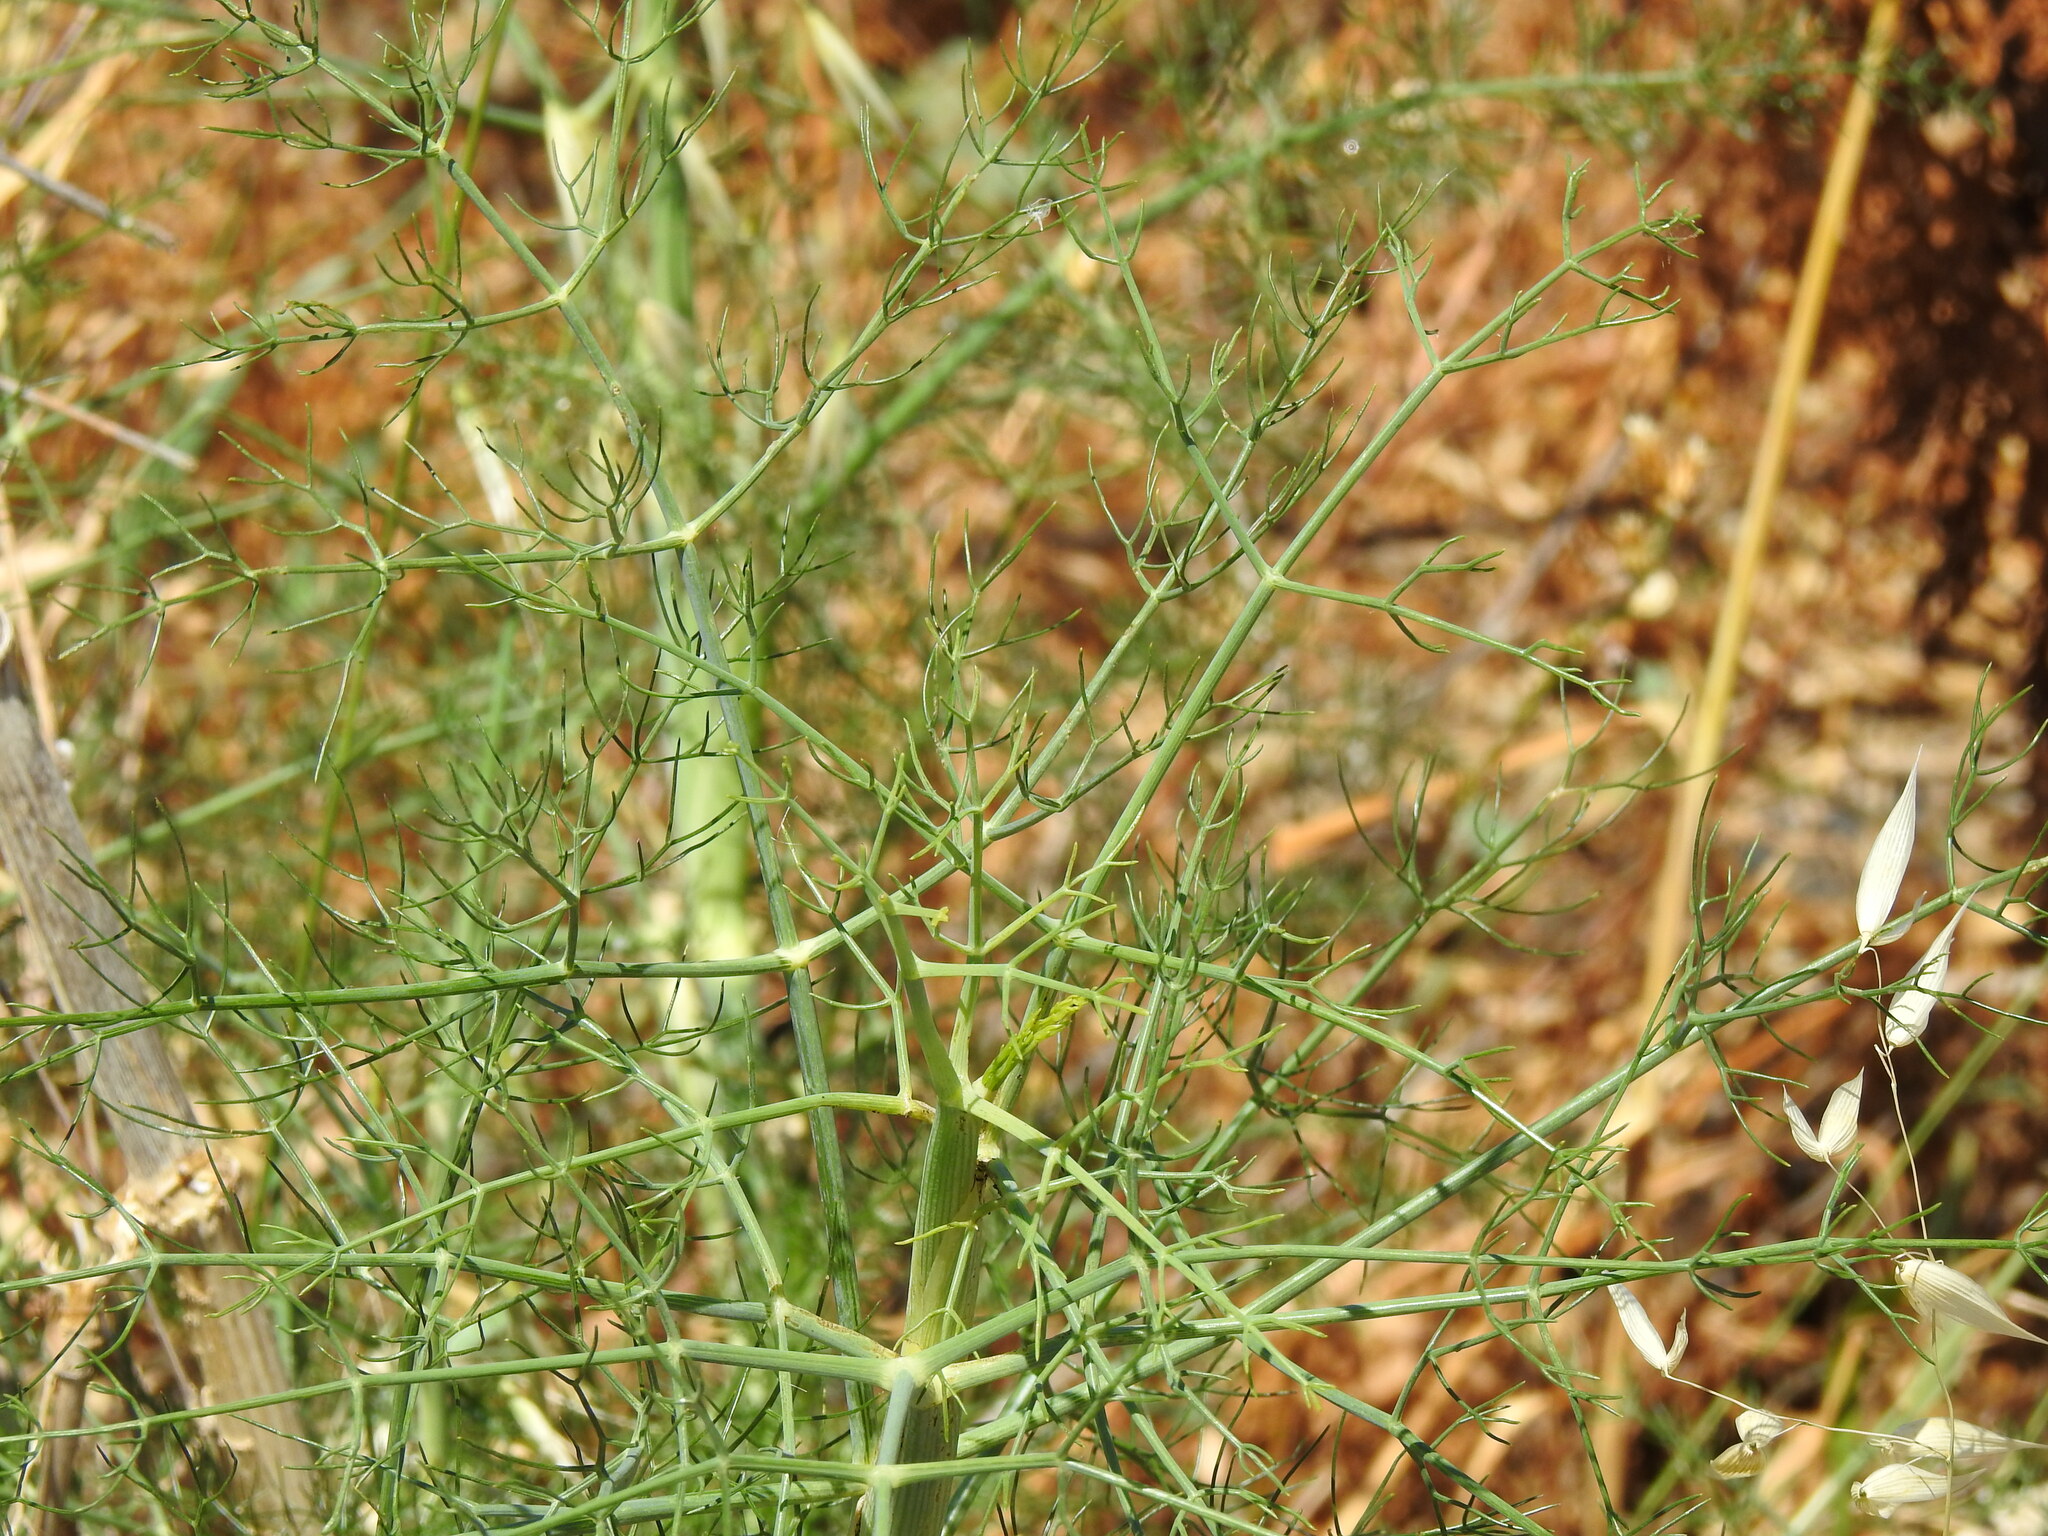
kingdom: Plantae
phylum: Tracheophyta
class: Magnoliopsida
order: Apiales
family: Apiaceae
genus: Foeniculum
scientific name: Foeniculum vulgare
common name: Fennel
